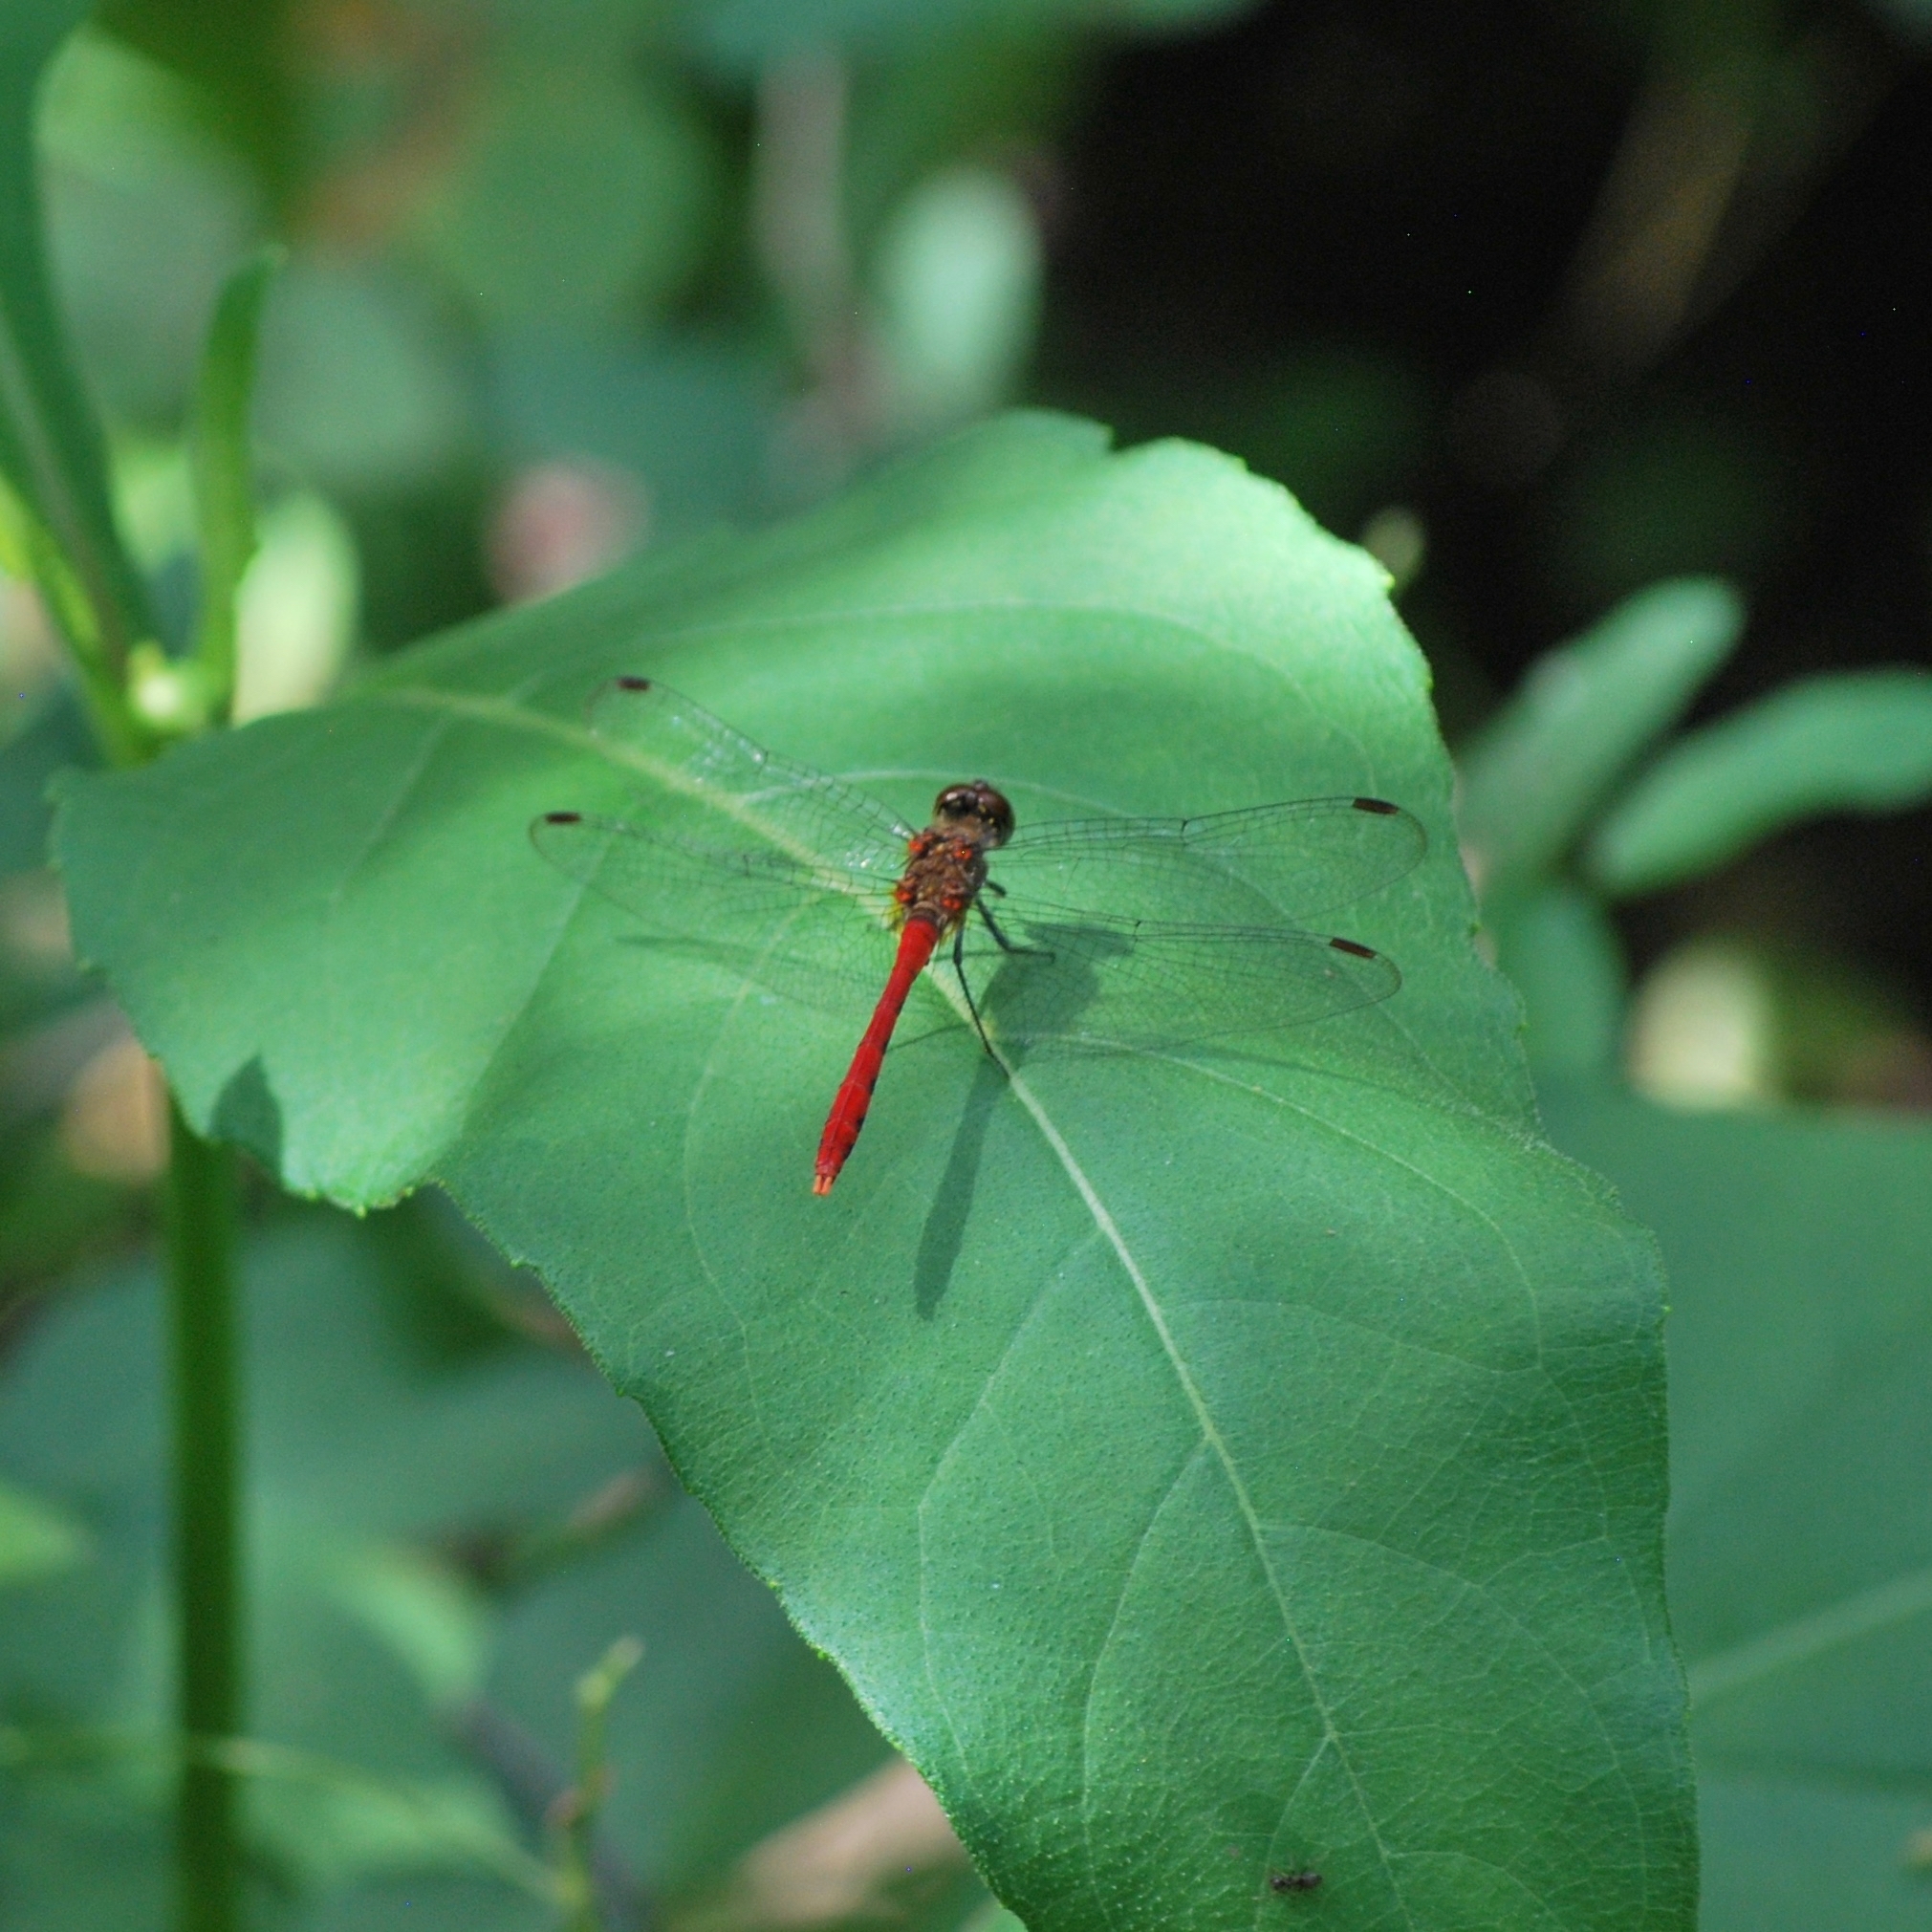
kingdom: Animalia
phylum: Arthropoda
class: Insecta
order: Odonata
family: Libellulidae
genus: Sympetrum
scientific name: Sympetrum eroticum
